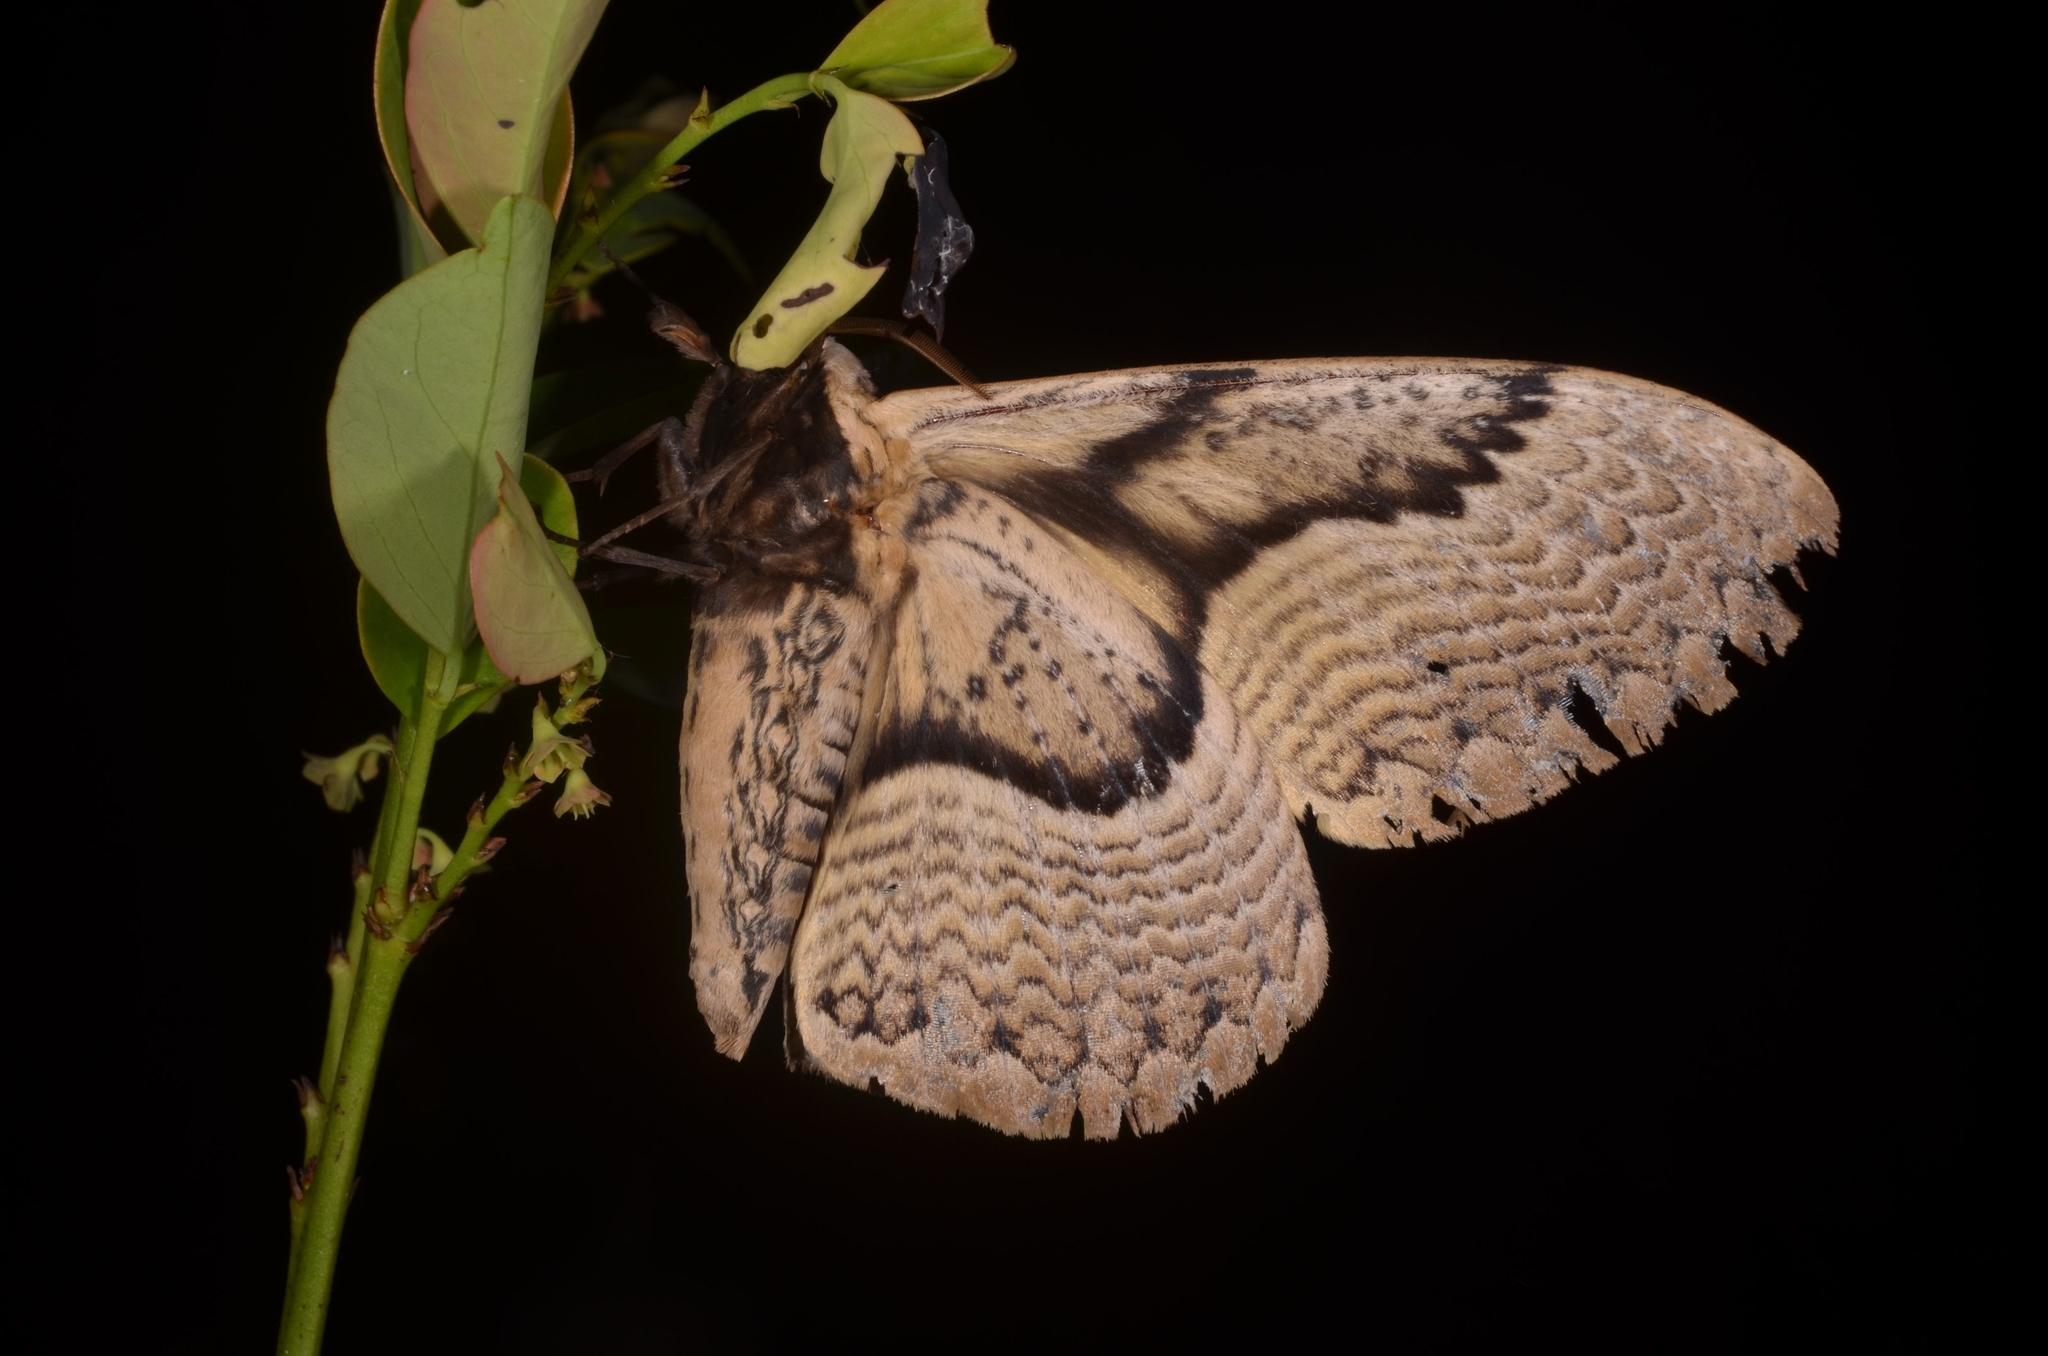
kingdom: Animalia
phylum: Arthropoda
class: Insecta
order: Lepidoptera
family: Brahmaeidae
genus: Brahmaea
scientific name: Brahmaea hearseyi
